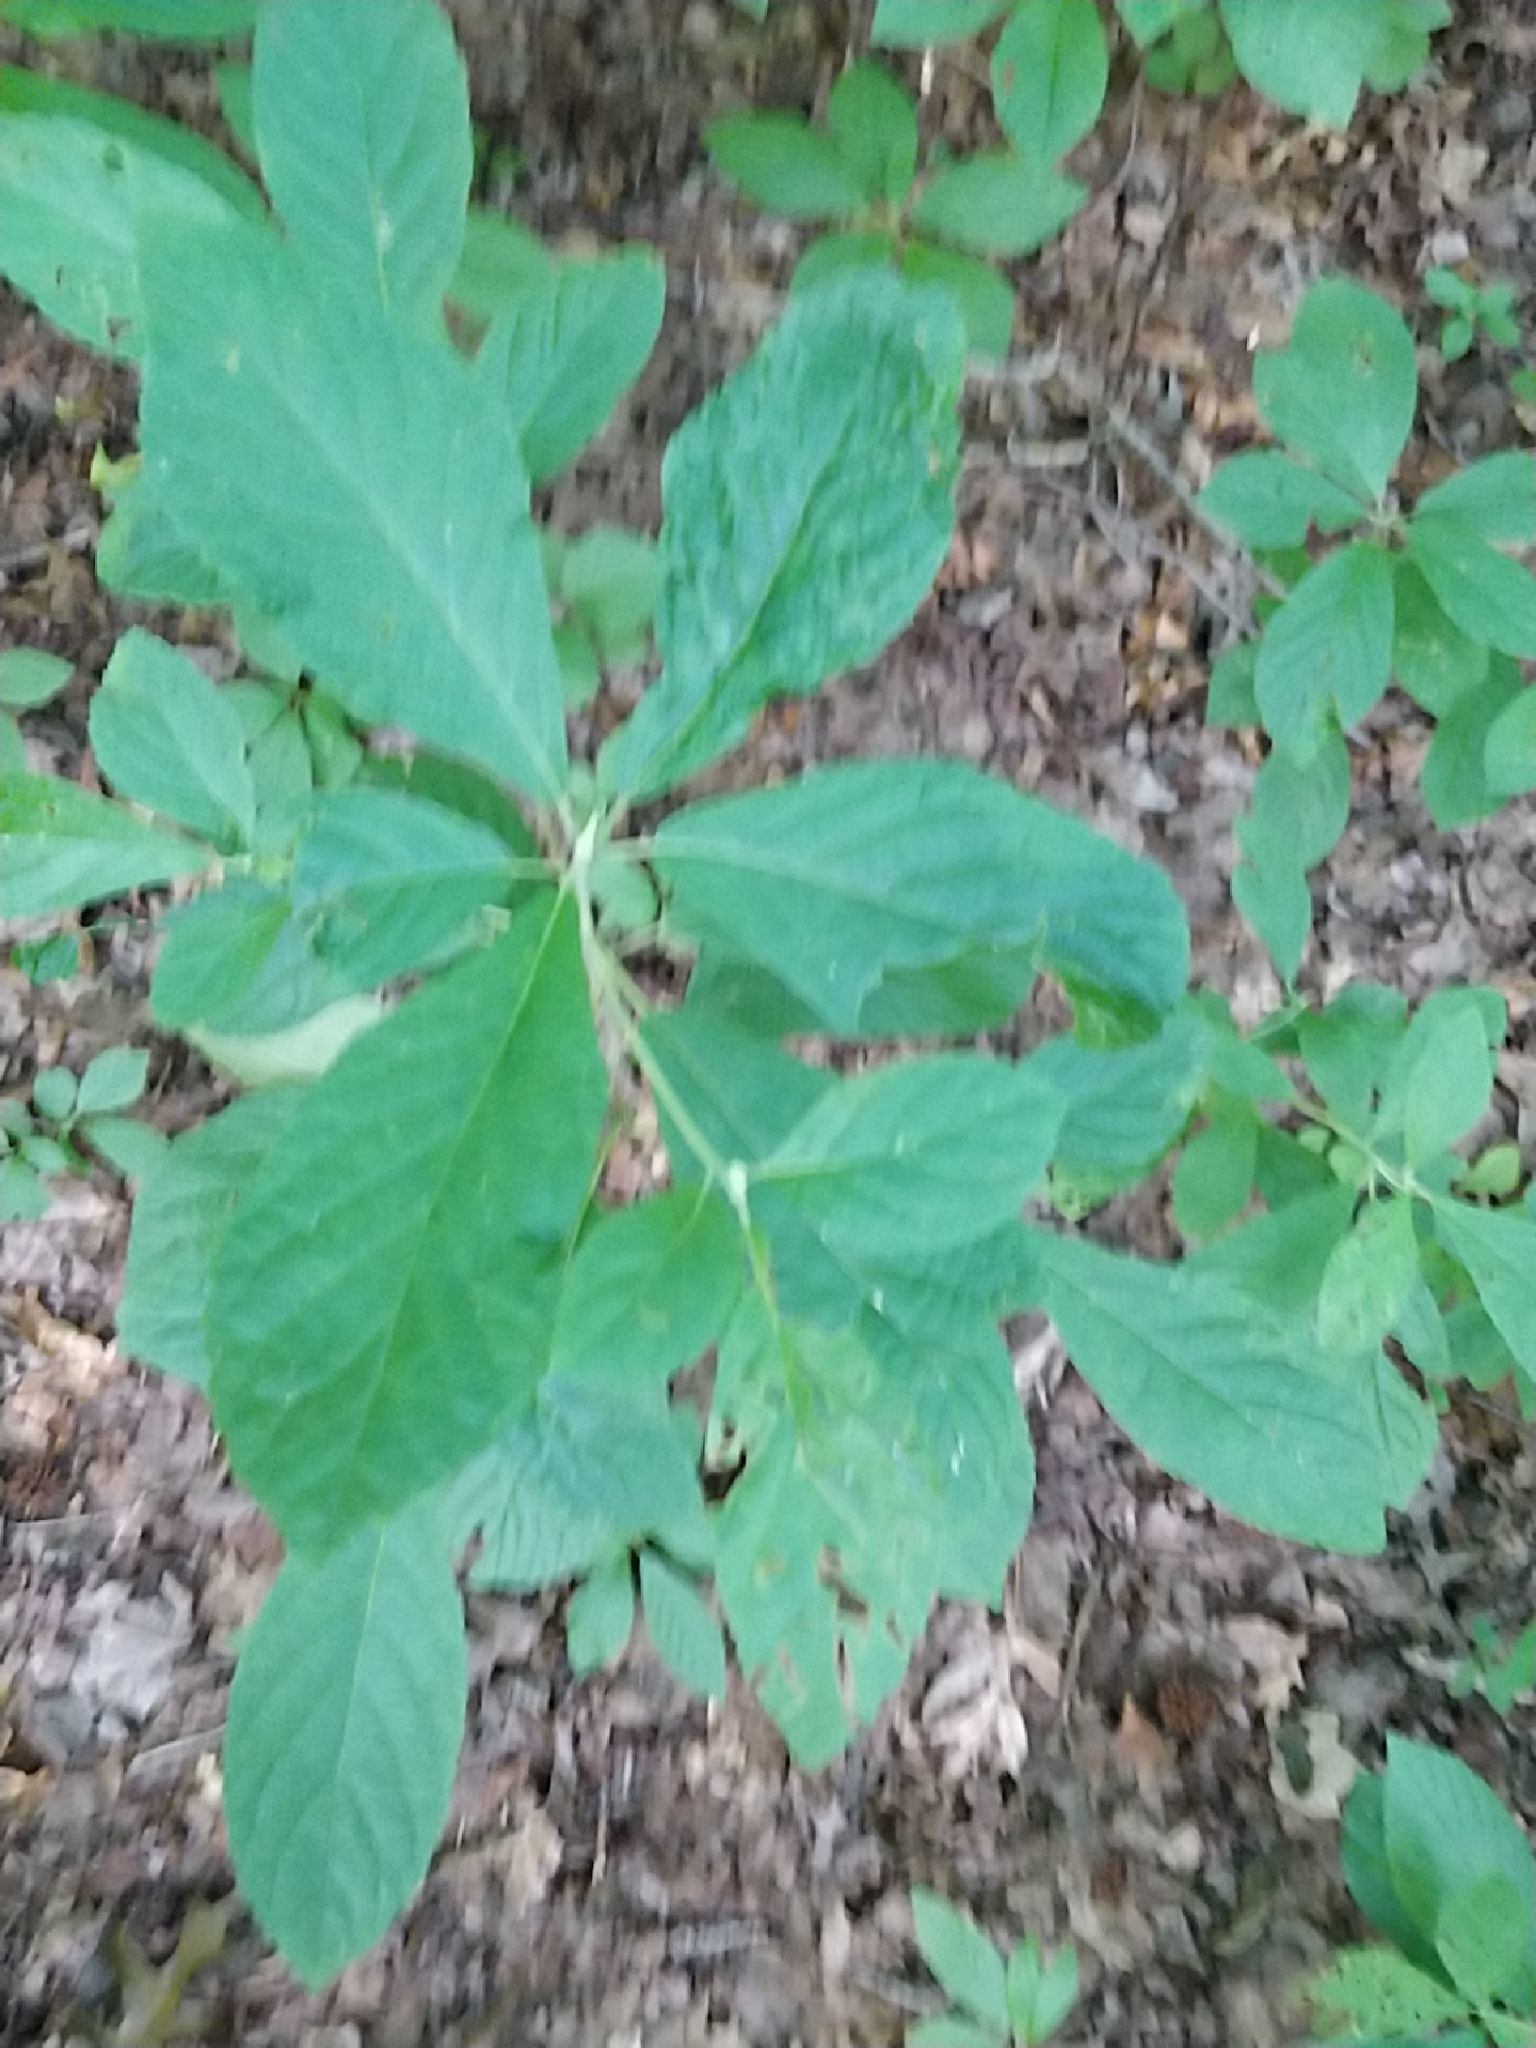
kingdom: Plantae
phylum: Tracheophyta
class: Magnoliopsida
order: Ericales
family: Clethraceae
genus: Clethra
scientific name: Clethra alnifolia
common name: Sweet pepperbush
